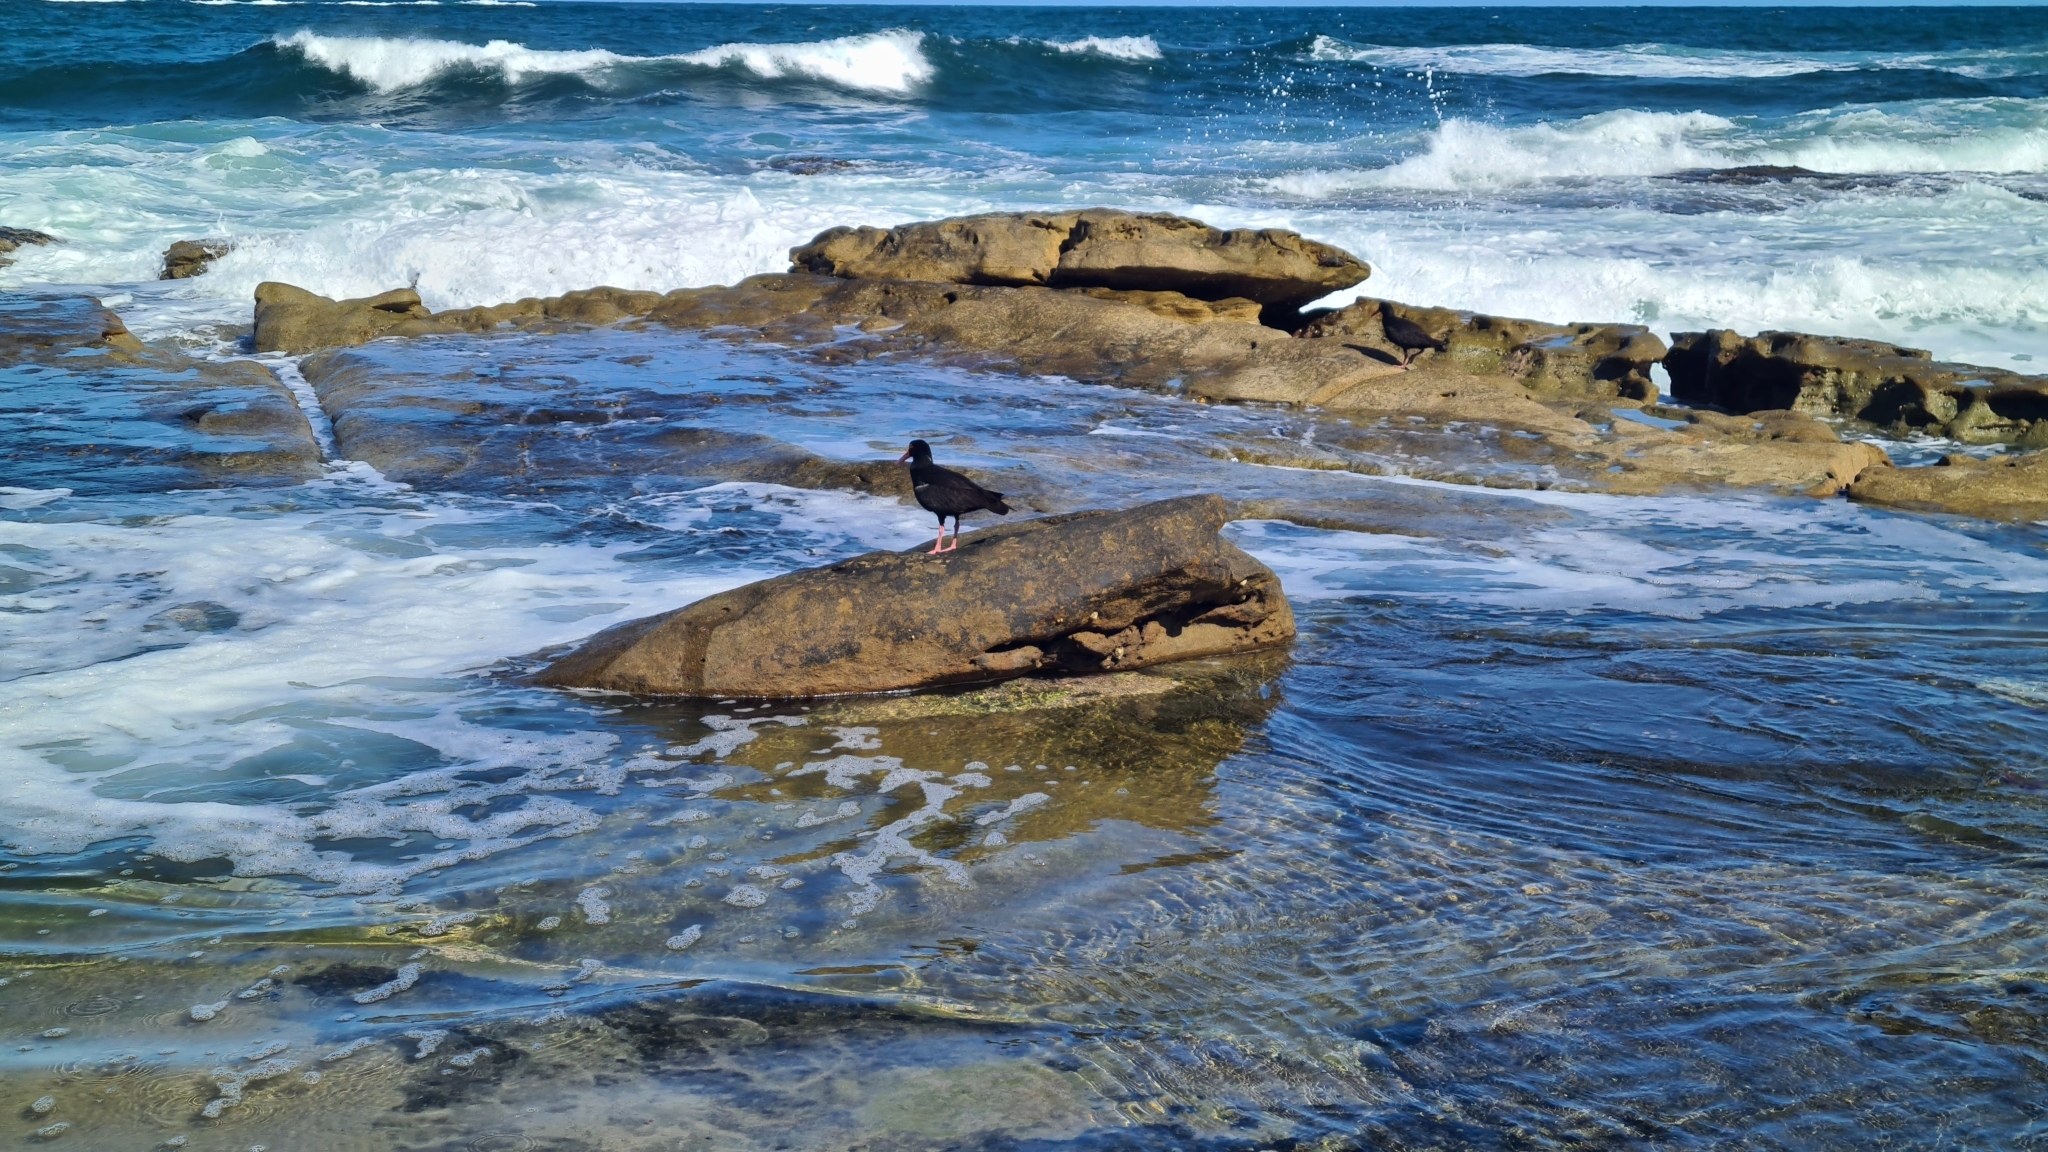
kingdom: Animalia
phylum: Chordata
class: Aves
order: Charadriiformes
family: Haematopodidae
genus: Haematopus
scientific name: Haematopus fuliginosus
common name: Sooty oystercatcher
